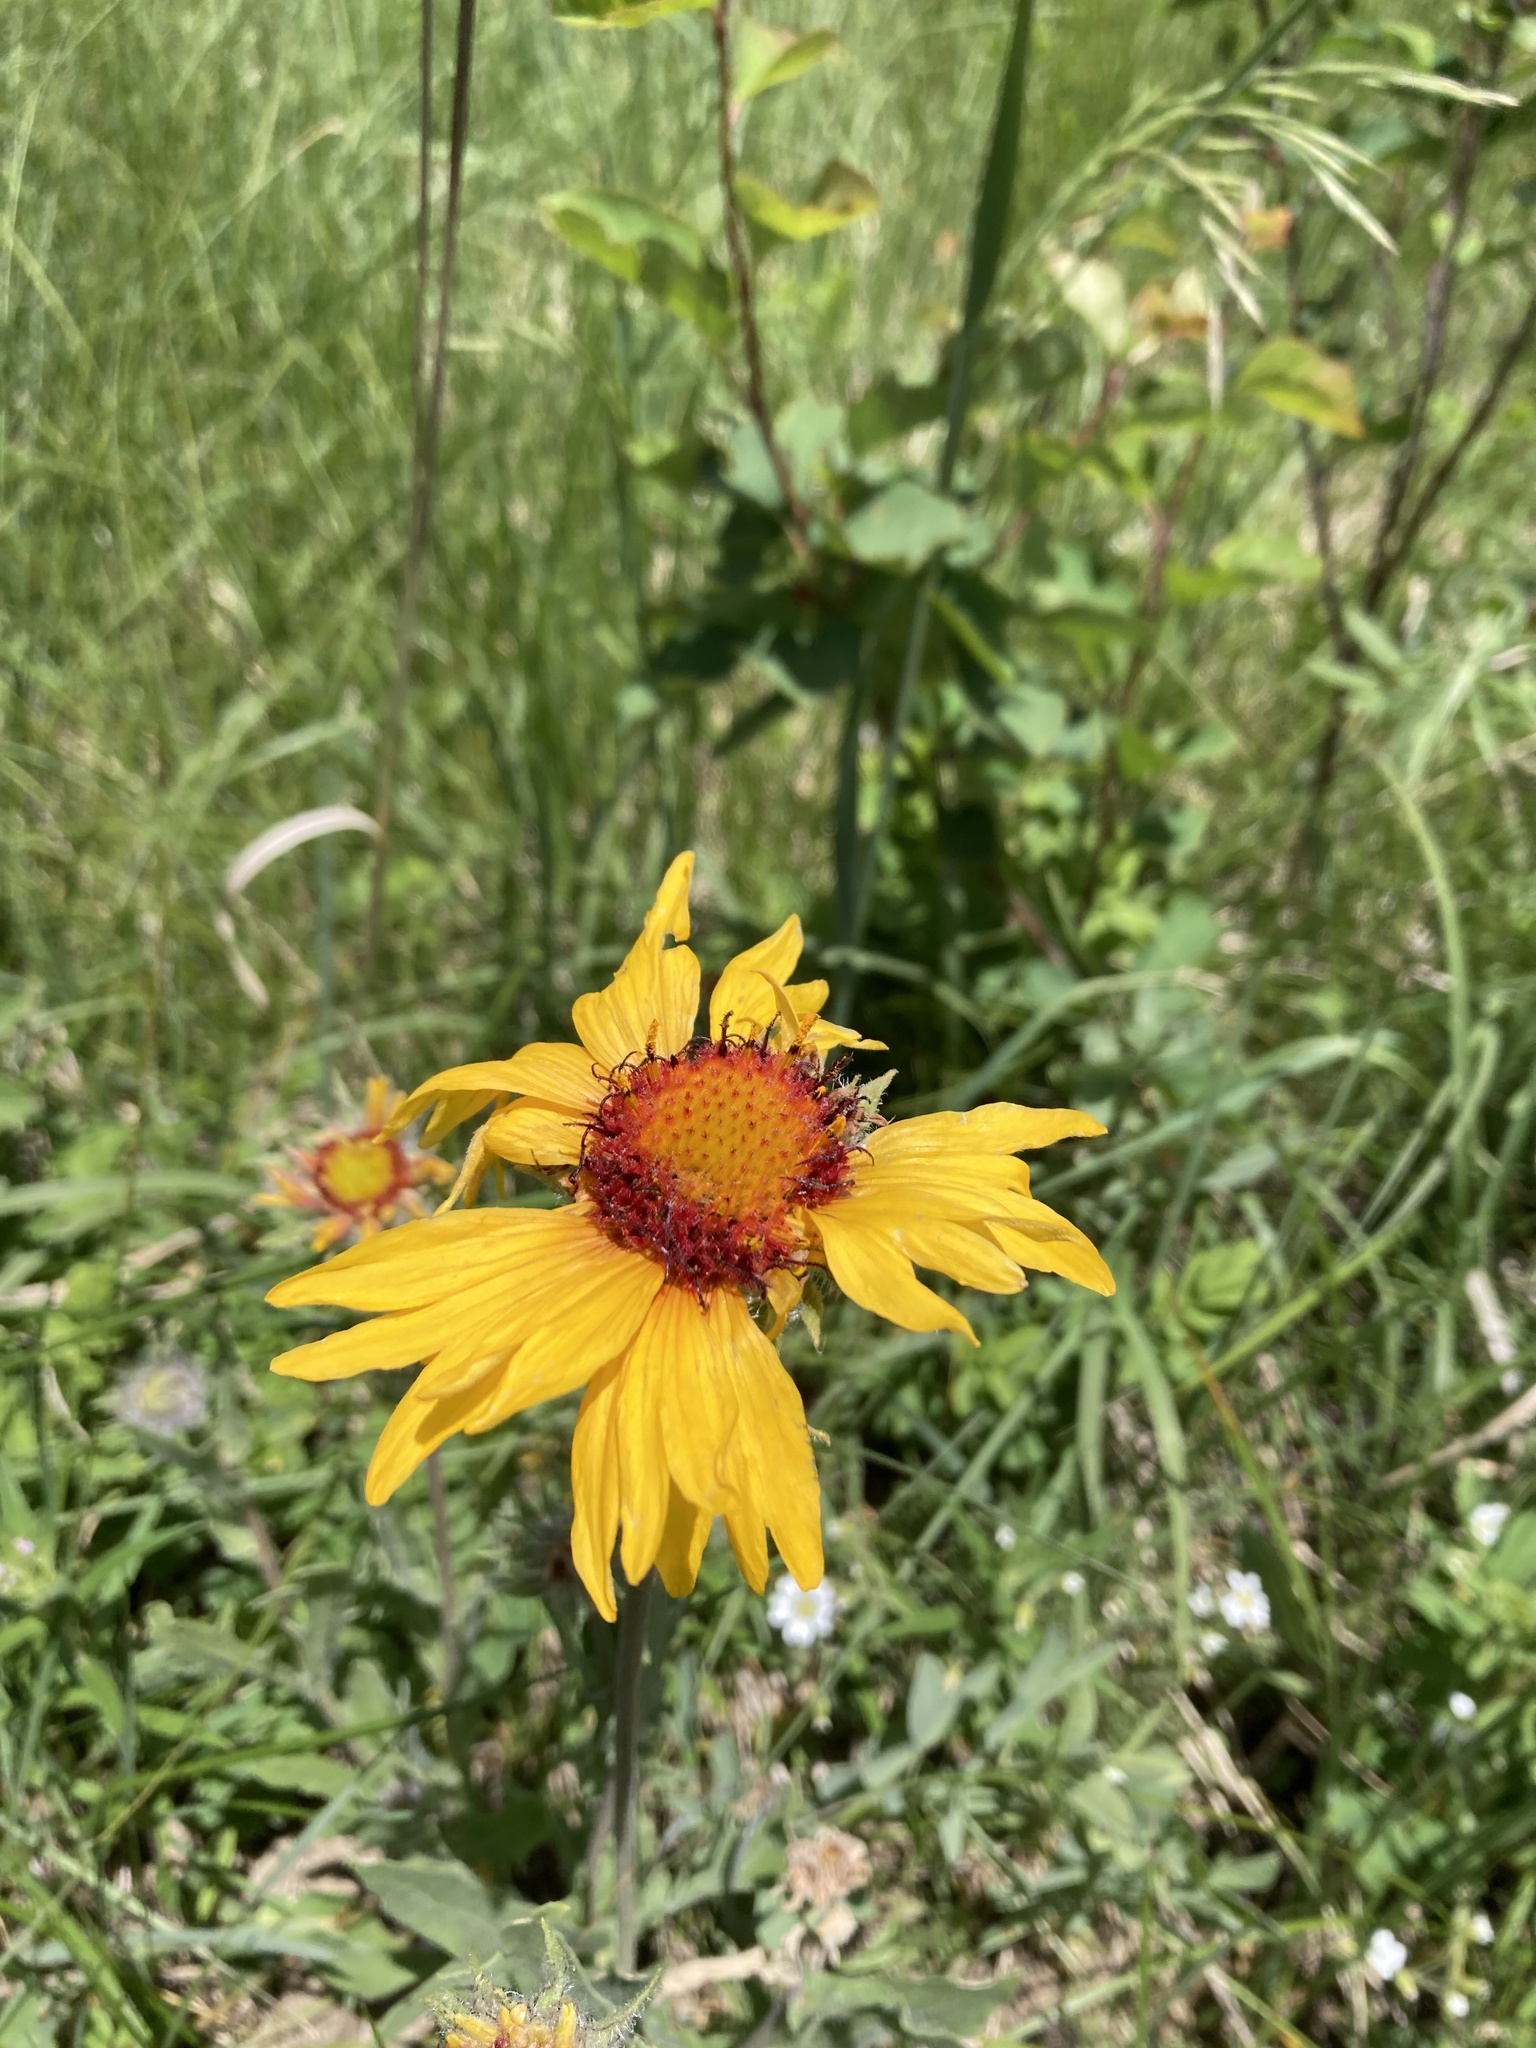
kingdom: Plantae
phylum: Tracheophyta
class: Magnoliopsida
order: Asterales
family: Asteraceae
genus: Gaillardia
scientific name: Gaillardia aristata
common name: Blanket-flower
